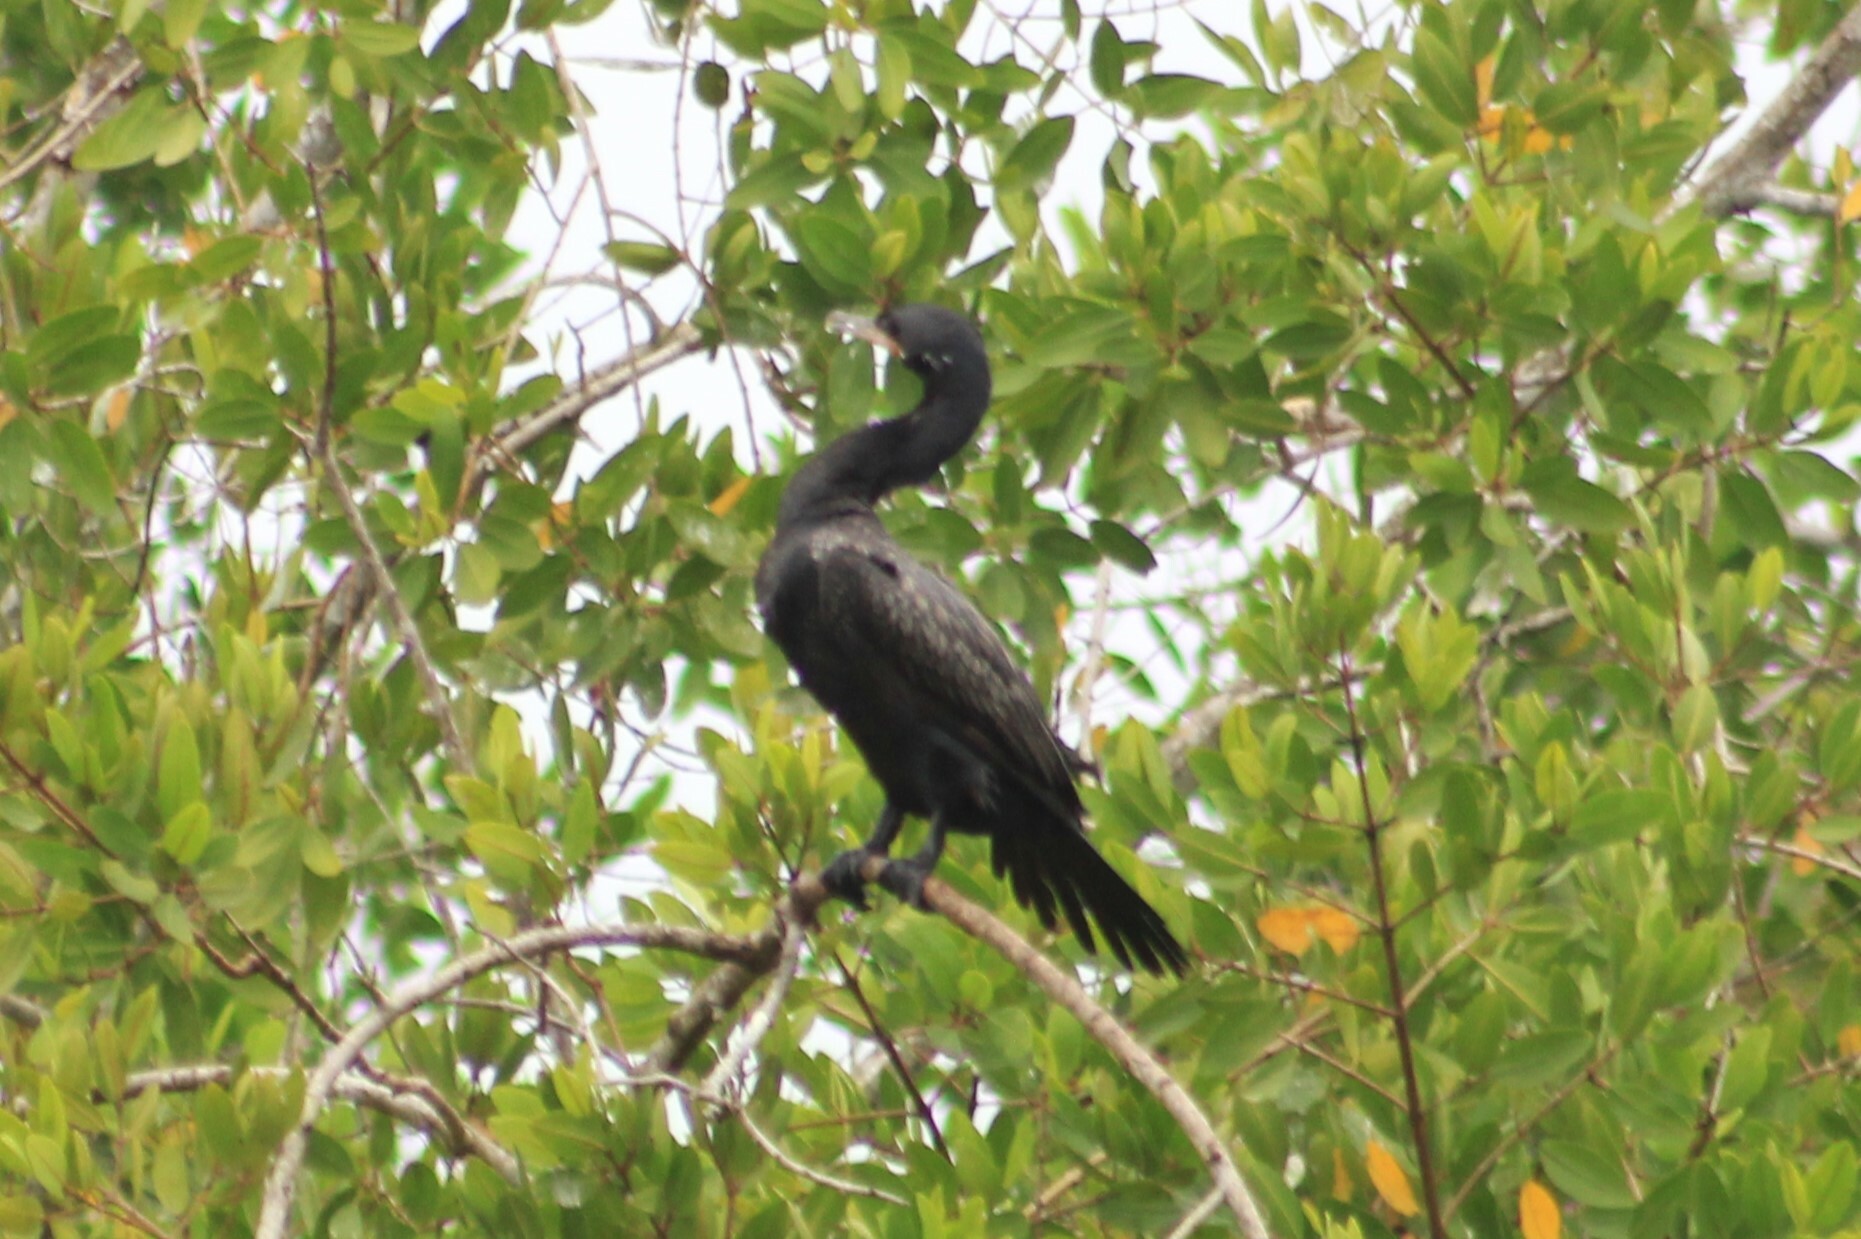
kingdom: Animalia
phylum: Chordata
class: Aves
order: Suliformes
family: Phalacrocoracidae
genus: Phalacrocorax
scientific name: Phalacrocorax brasilianus
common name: Neotropic cormorant
